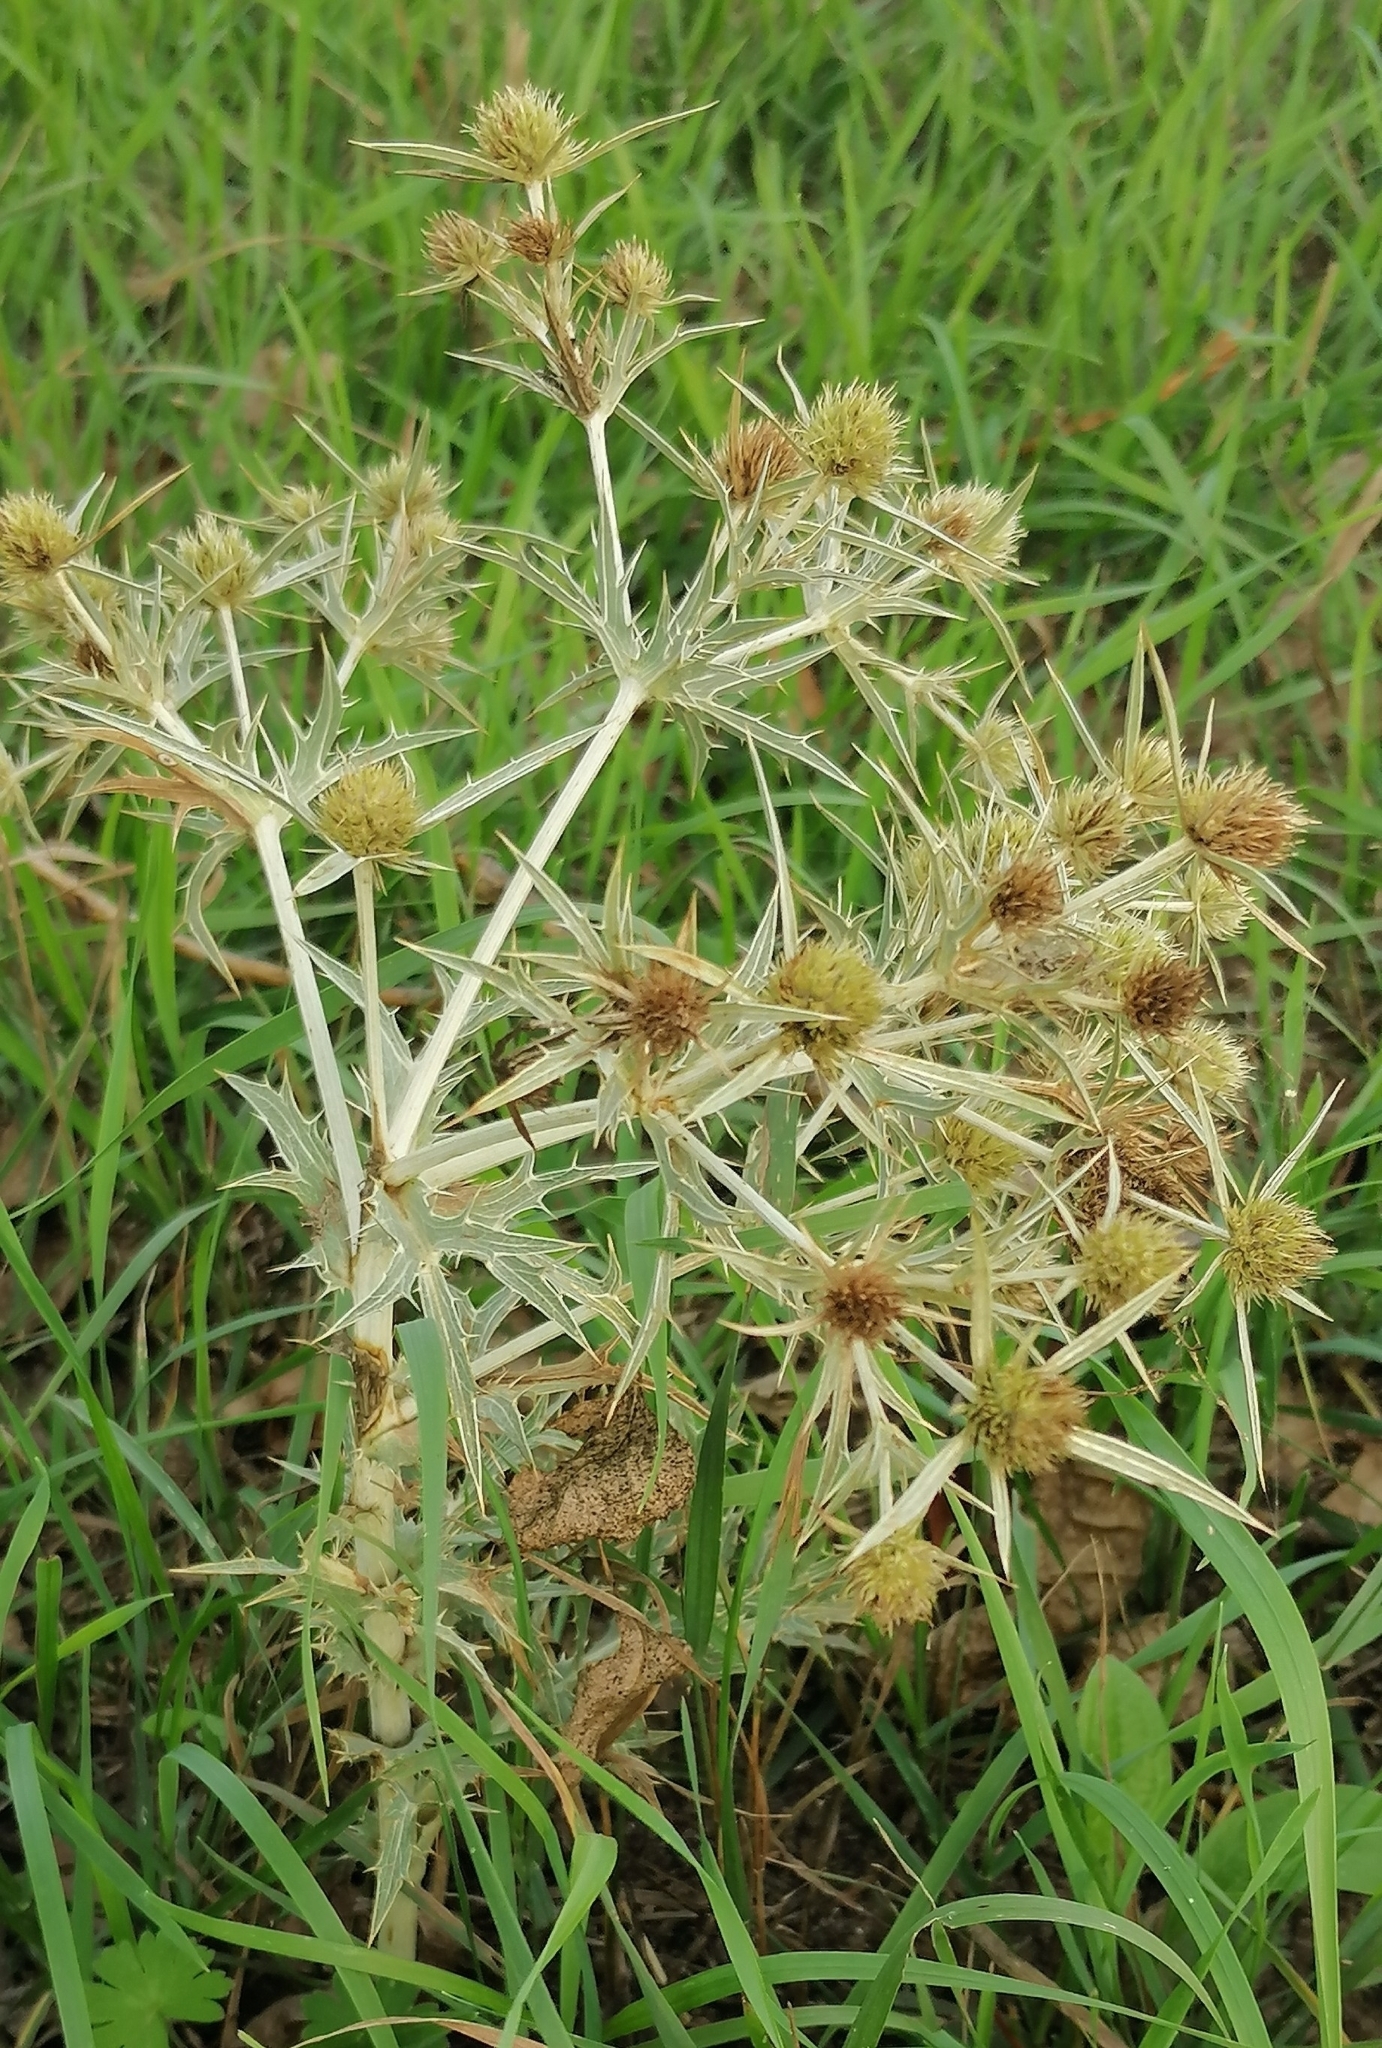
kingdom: Plantae
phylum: Tracheophyta
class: Magnoliopsida
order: Apiales
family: Apiaceae
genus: Eryngium
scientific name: Eryngium campestre
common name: Field eryngo
